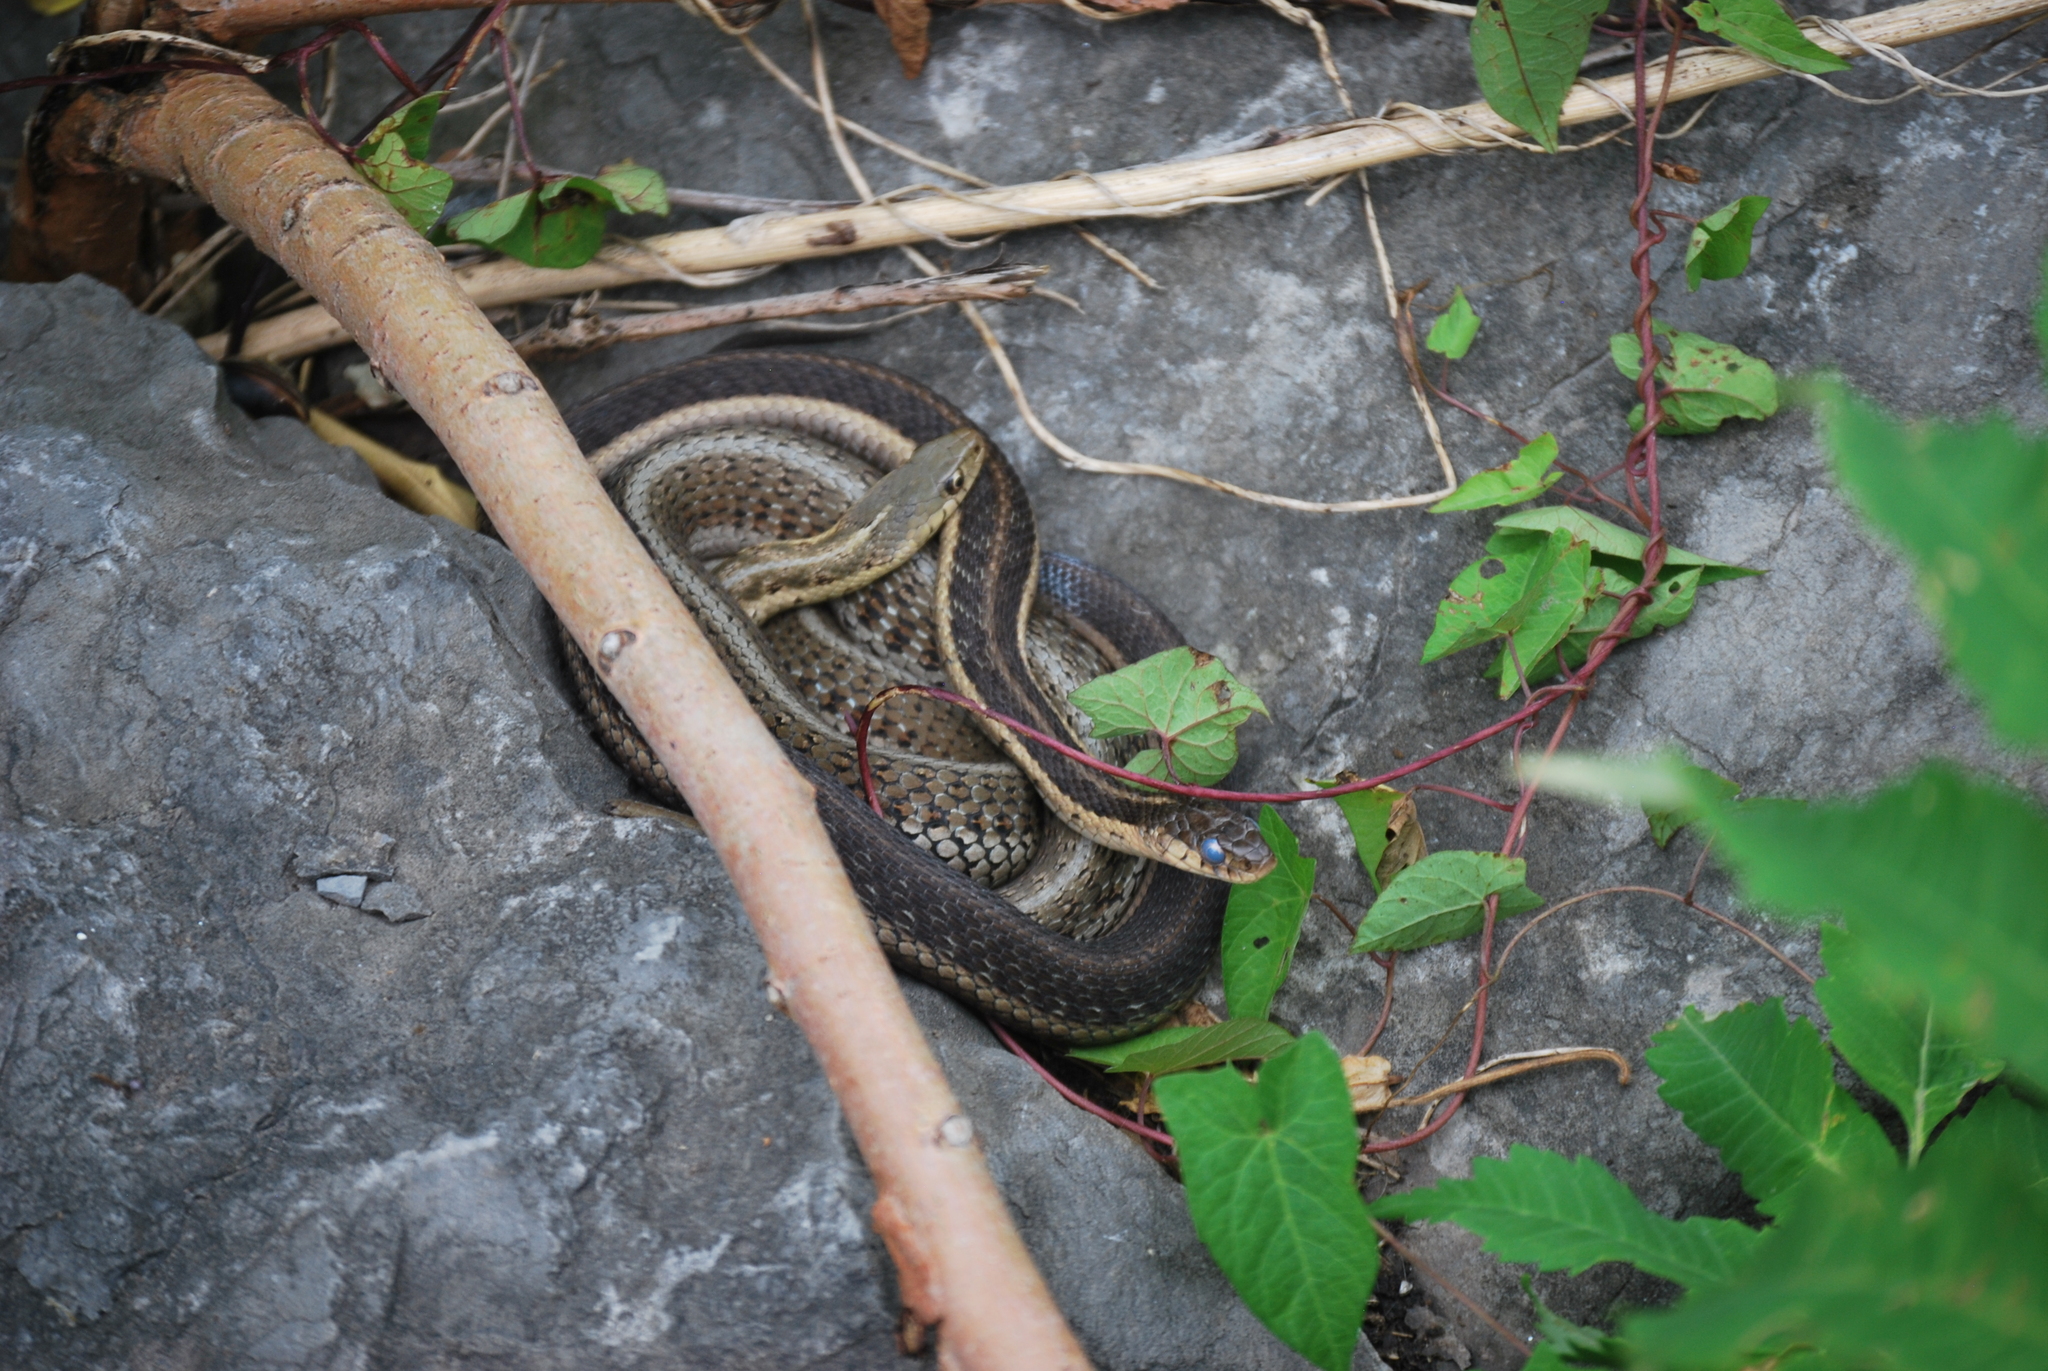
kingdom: Animalia
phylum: Chordata
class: Squamata
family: Colubridae
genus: Thamnophis
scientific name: Thamnophis sirtalis
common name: Common garter snake
